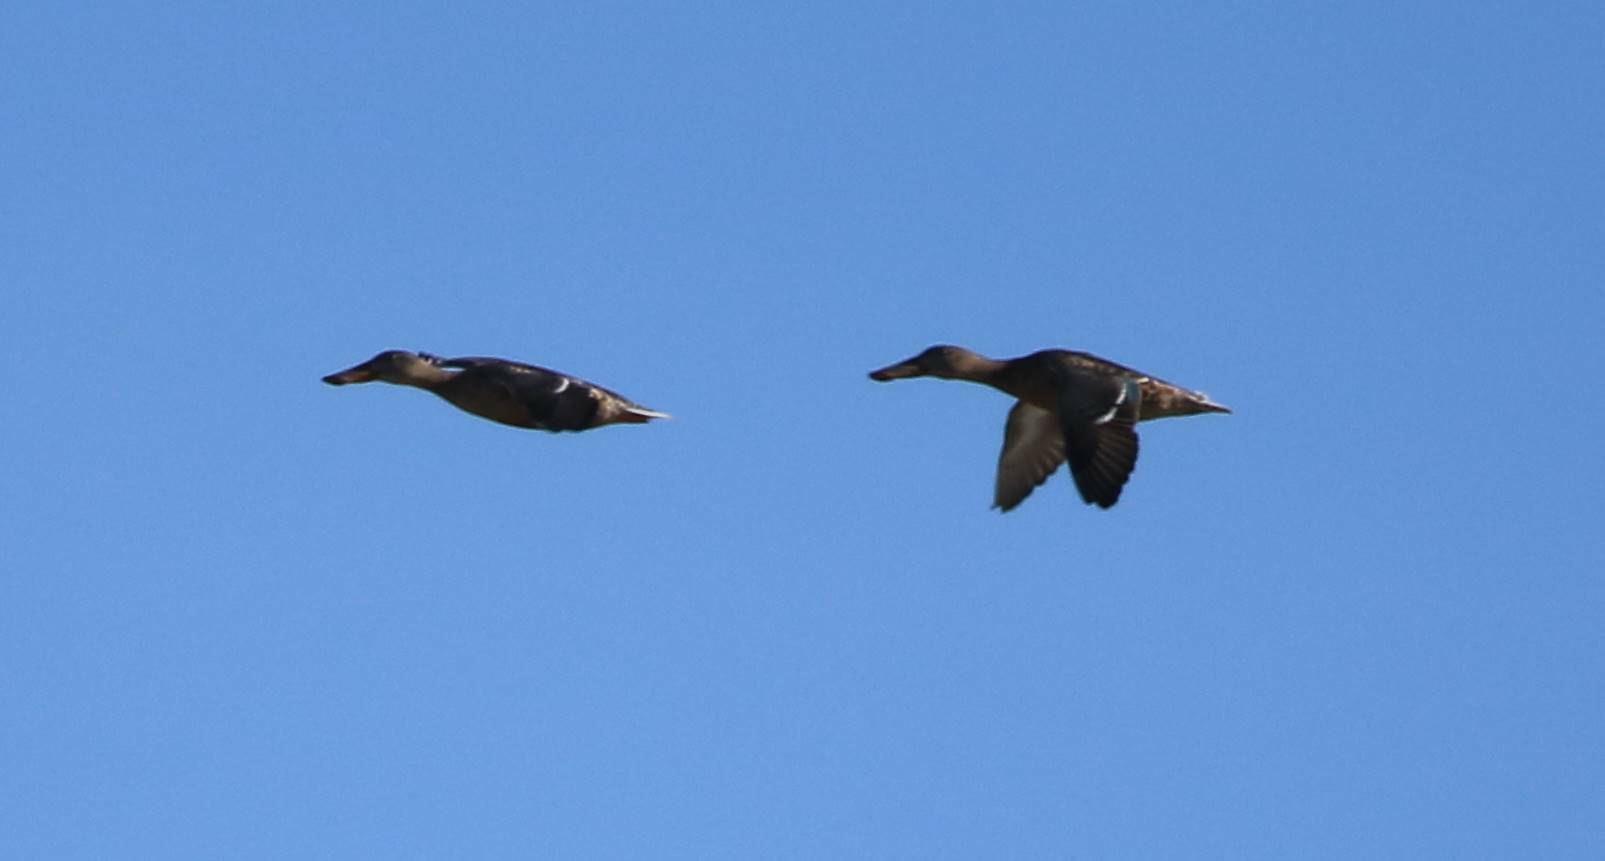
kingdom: Animalia
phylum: Chordata
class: Aves
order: Anseriformes
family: Anatidae
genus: Spatula
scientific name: Spatula clypeata
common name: Northern shoveler
